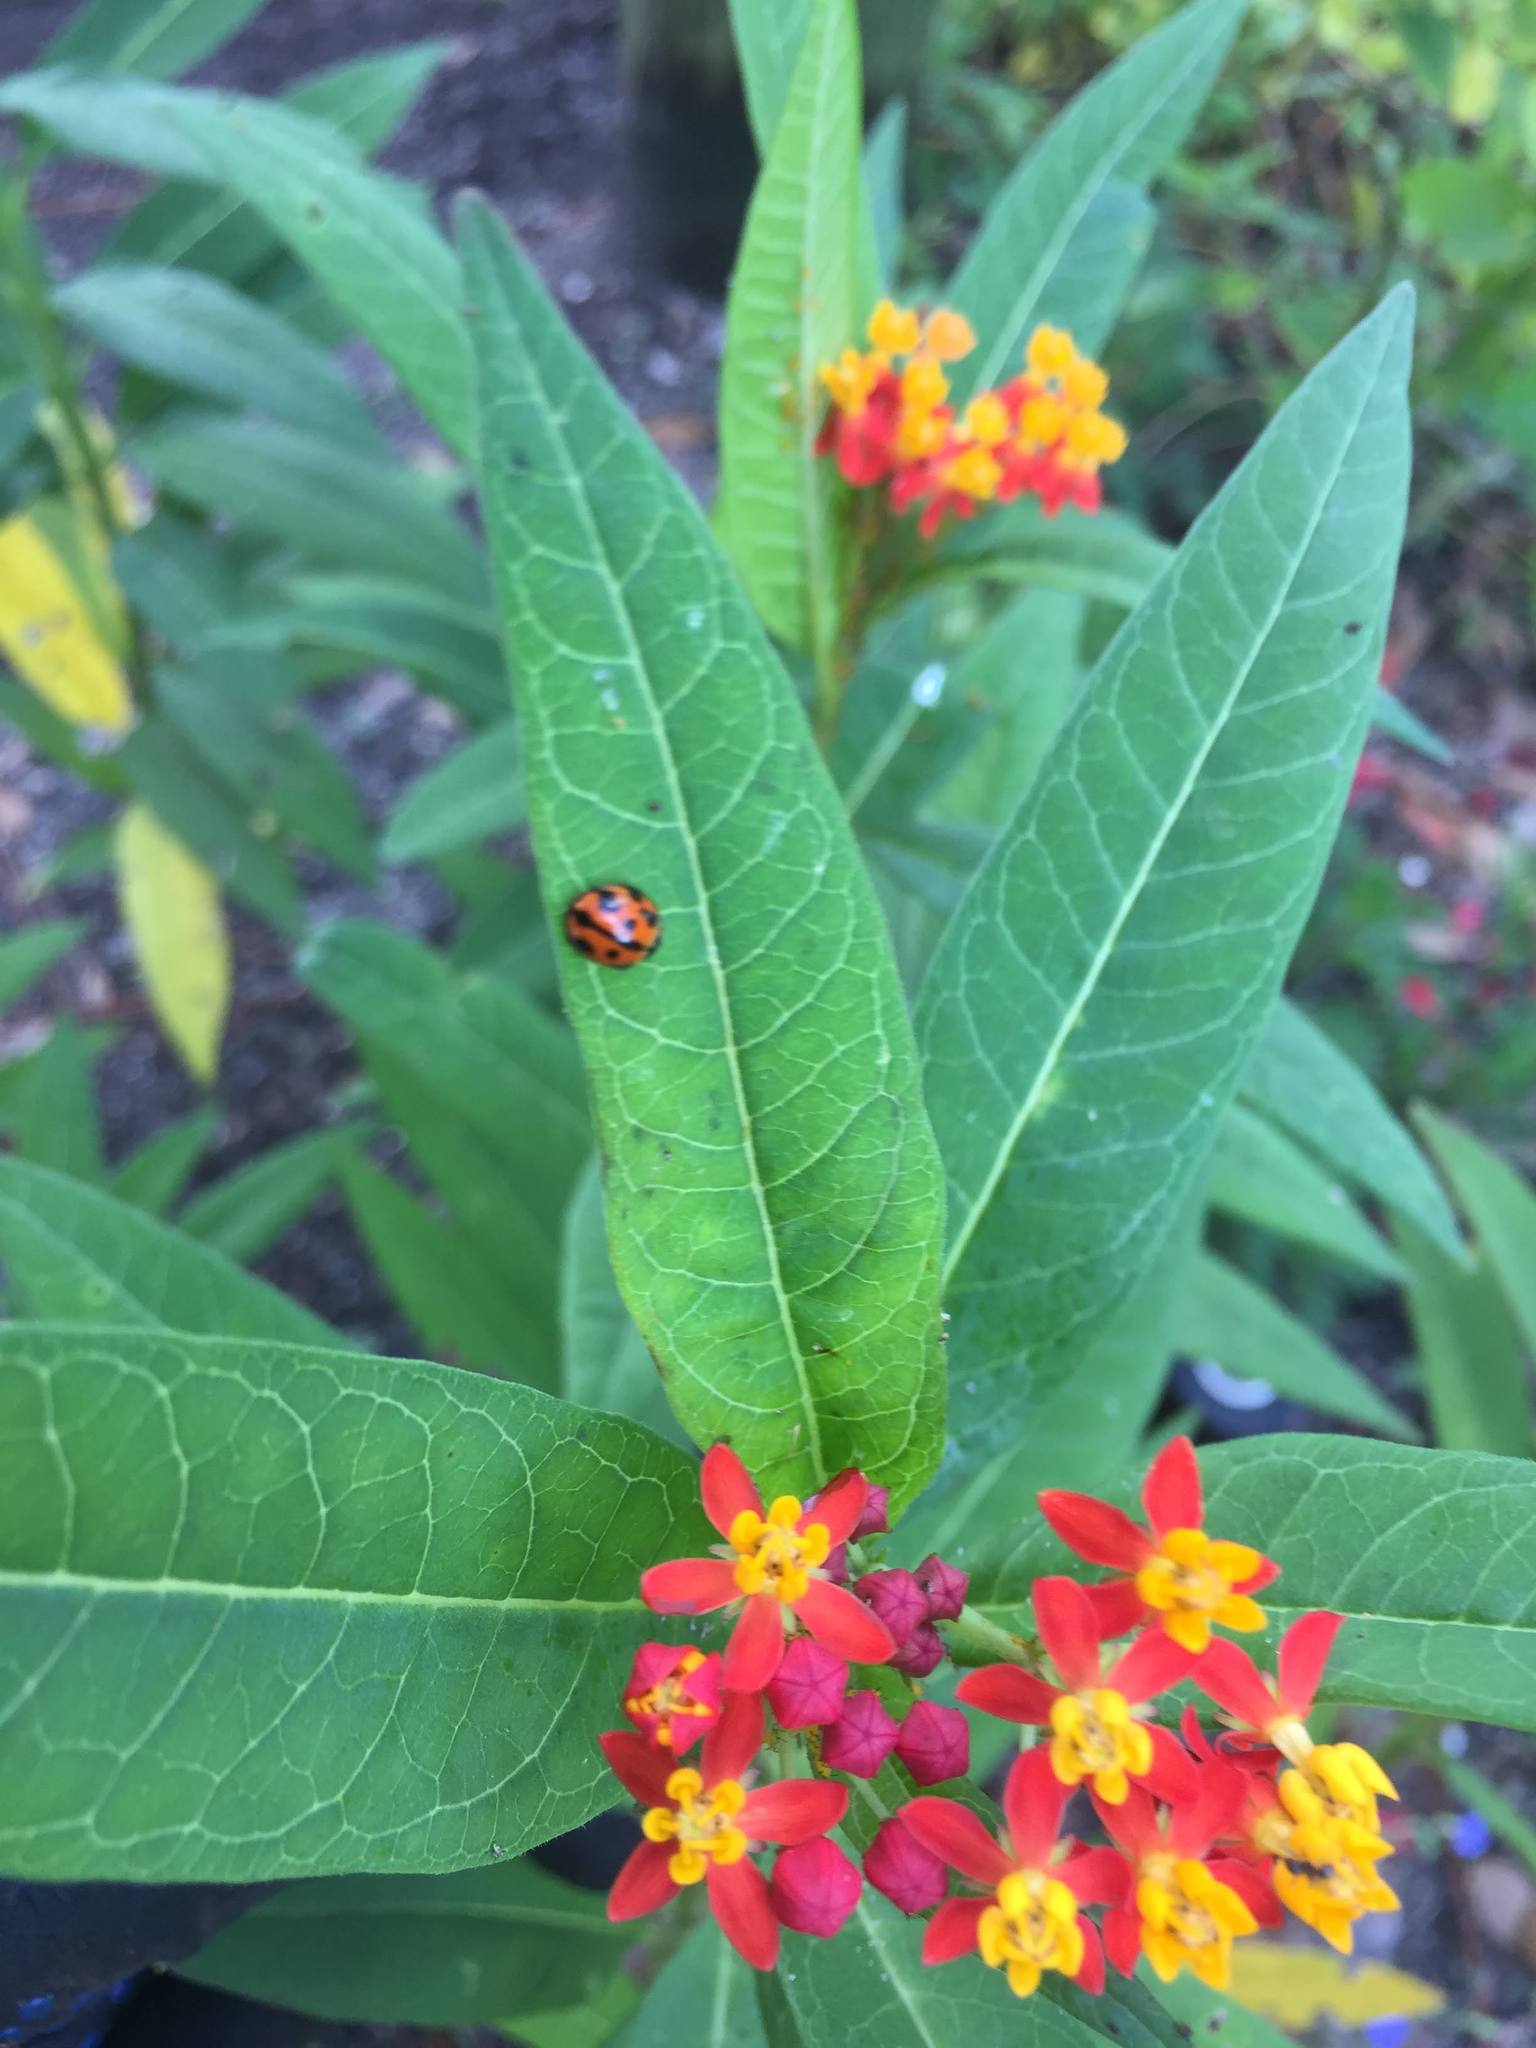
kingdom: Animalia
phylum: Arthropoda
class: Insecta
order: Coleoptera
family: Coccinellidae
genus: Coelophora
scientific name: Coelophora inaequalis
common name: Common australian lady beetle
